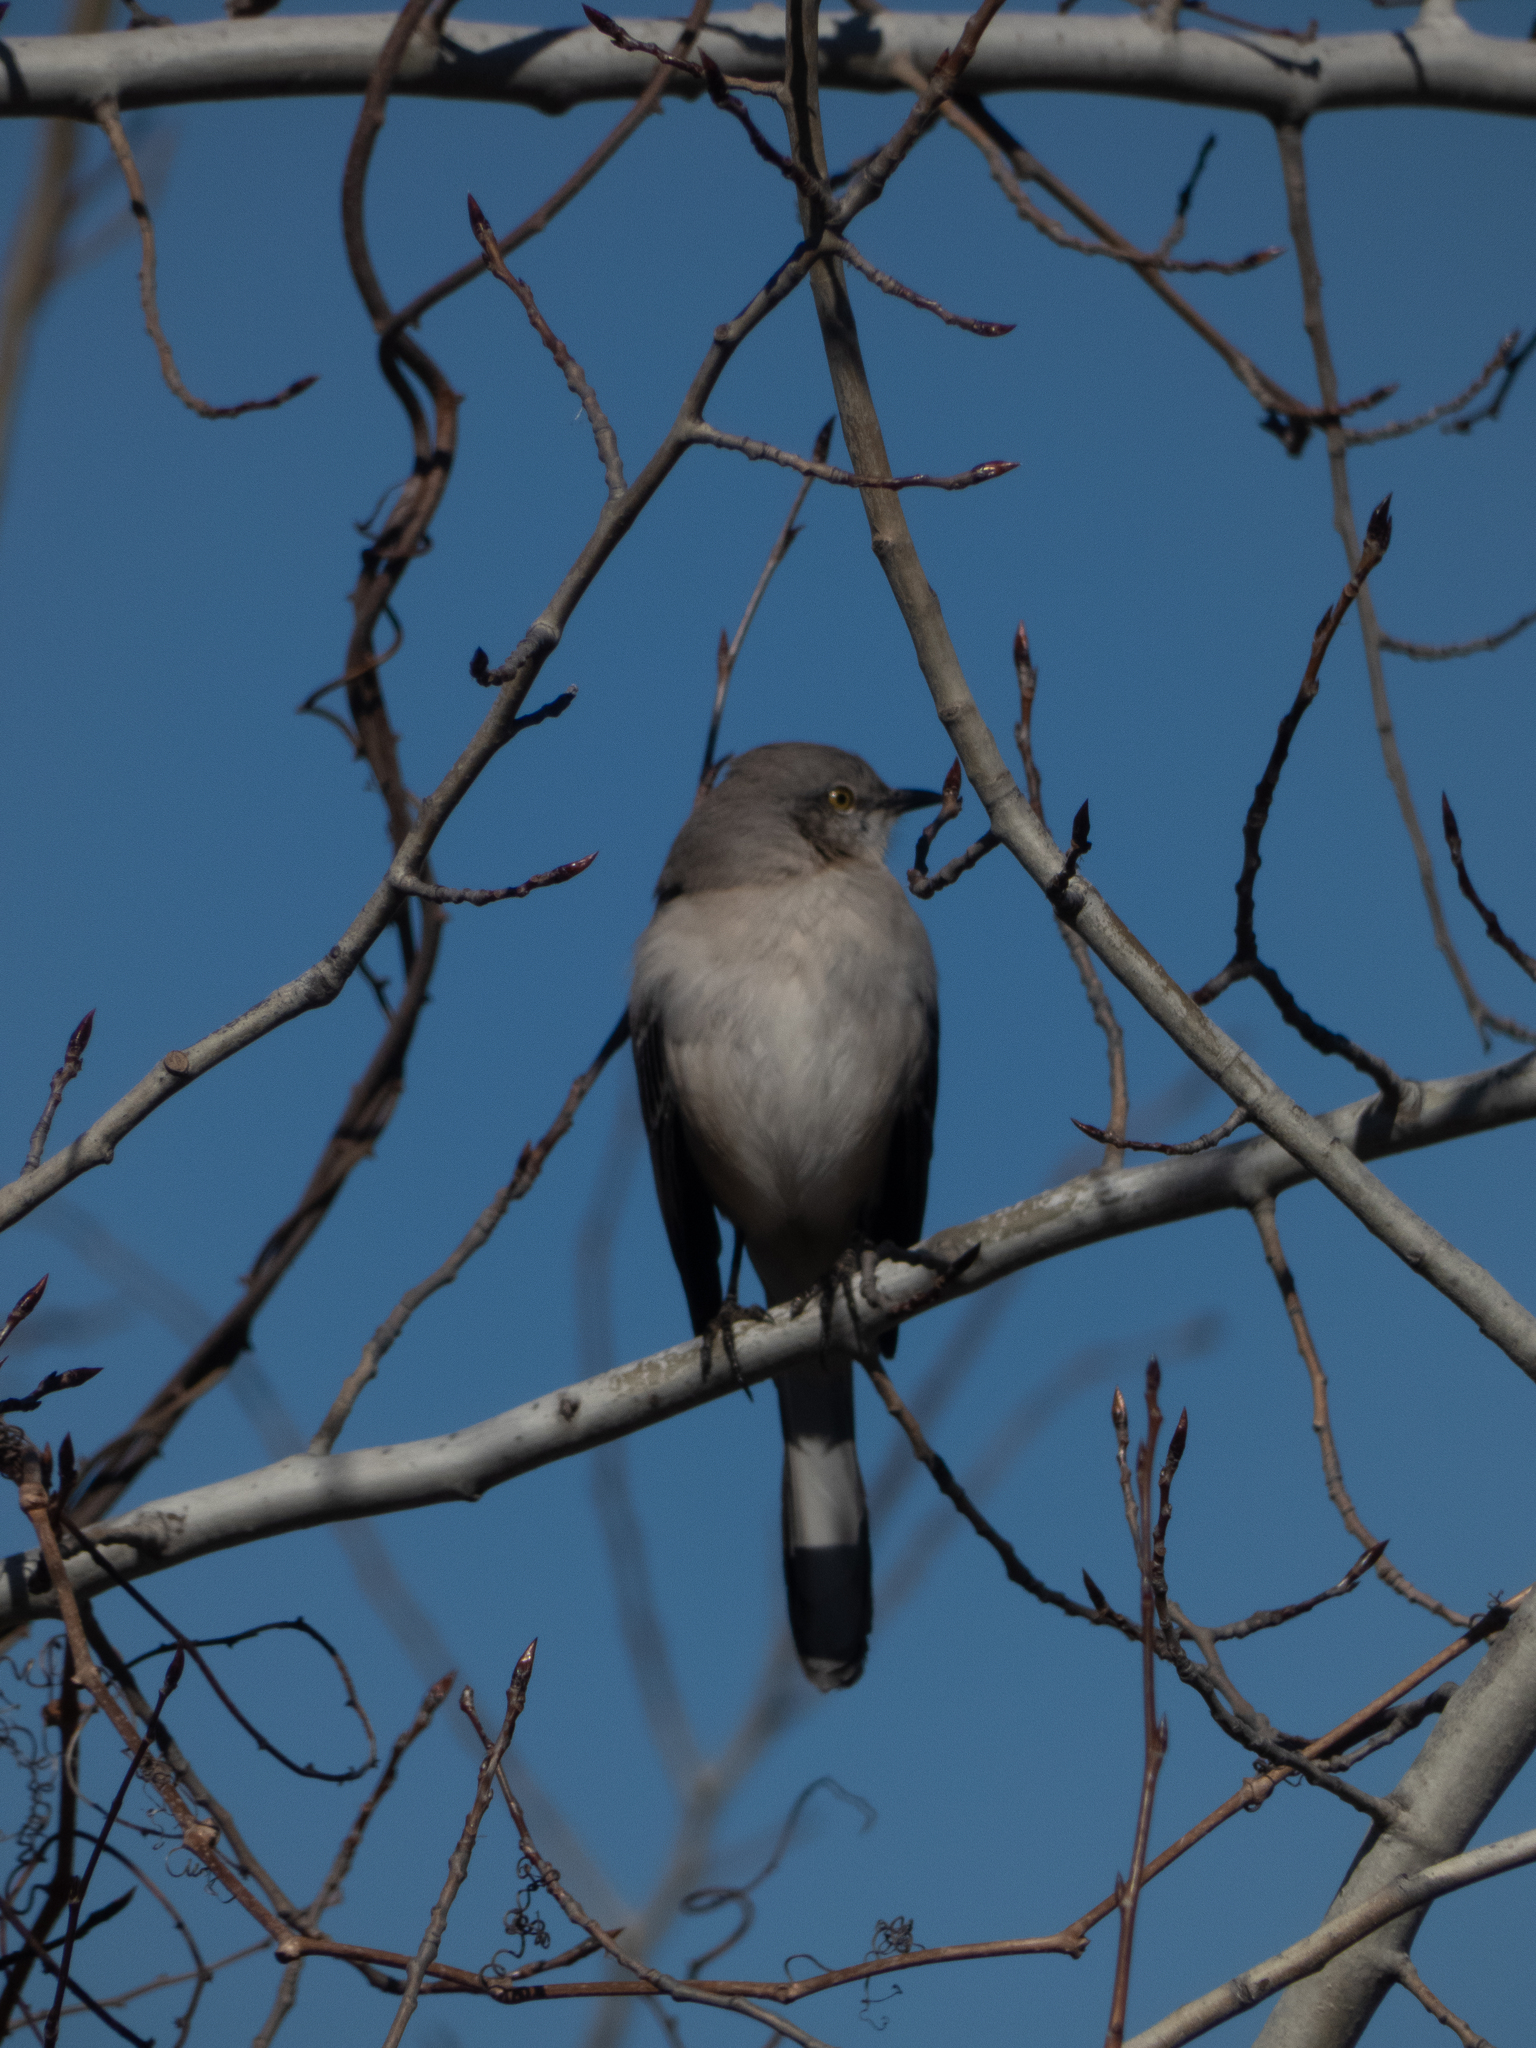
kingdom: Animalia
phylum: Chordata
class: Aves
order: Passeriformes
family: Mimidae
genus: Mimus
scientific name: Mimus polyglottos
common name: Northern mockingbird
